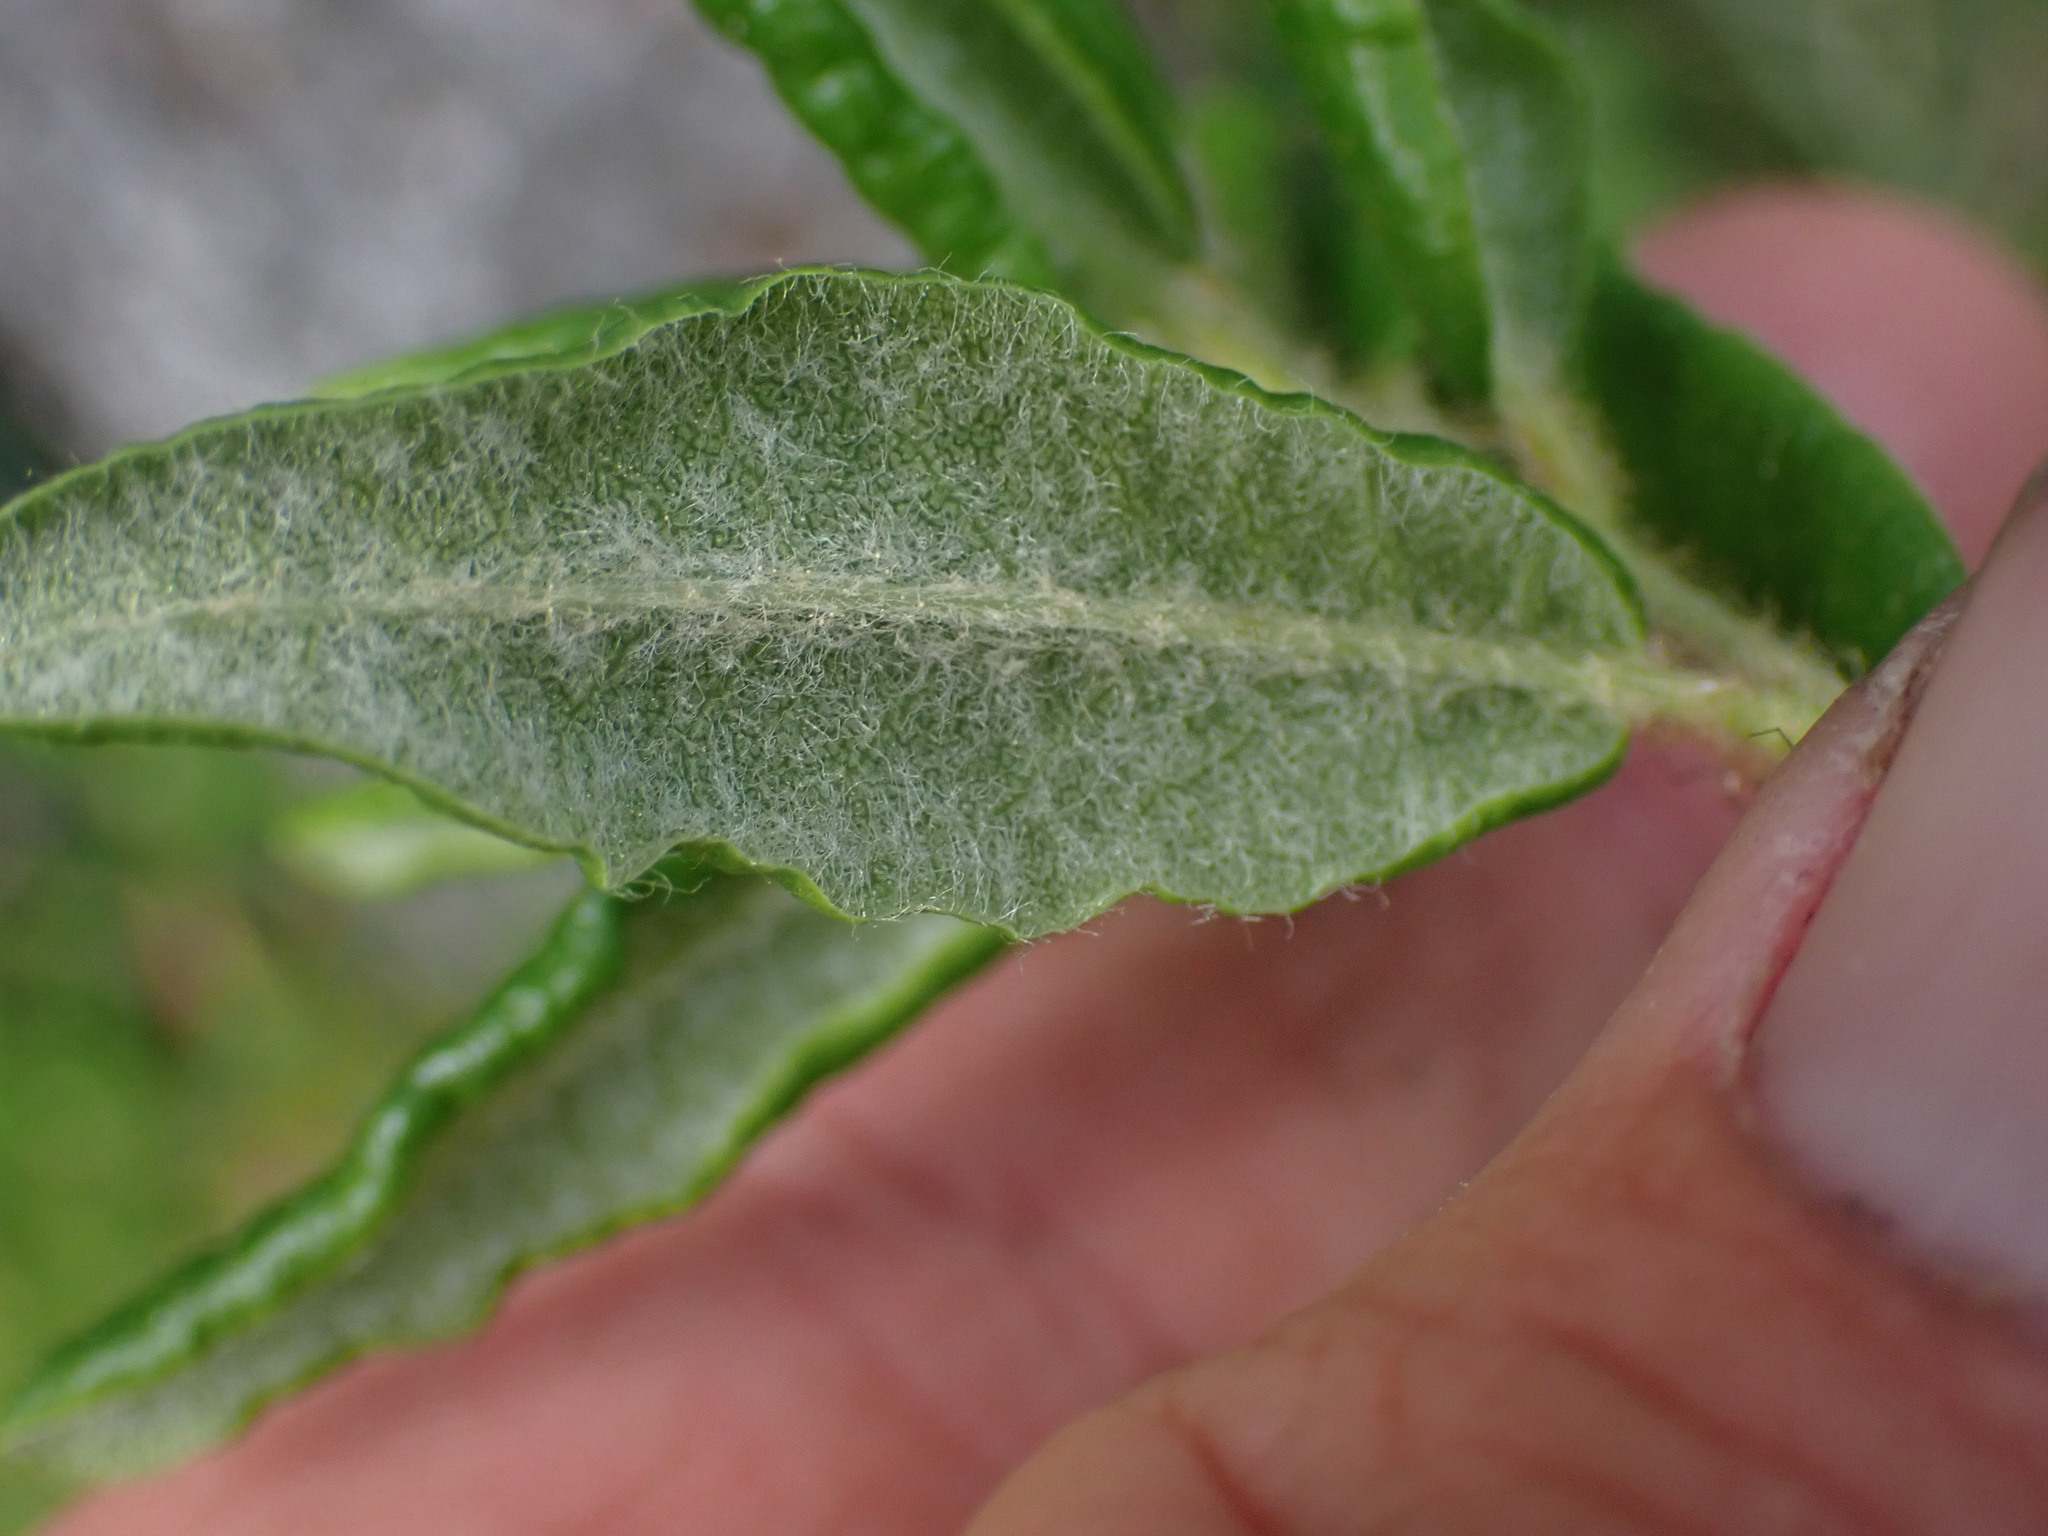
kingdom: Plantae
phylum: Tracheophyta
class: Magnoliopsida
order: Ericales
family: Ericaceae
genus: Rhododendron
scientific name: Rhododendron groenlandicum
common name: Bog labrador tea
